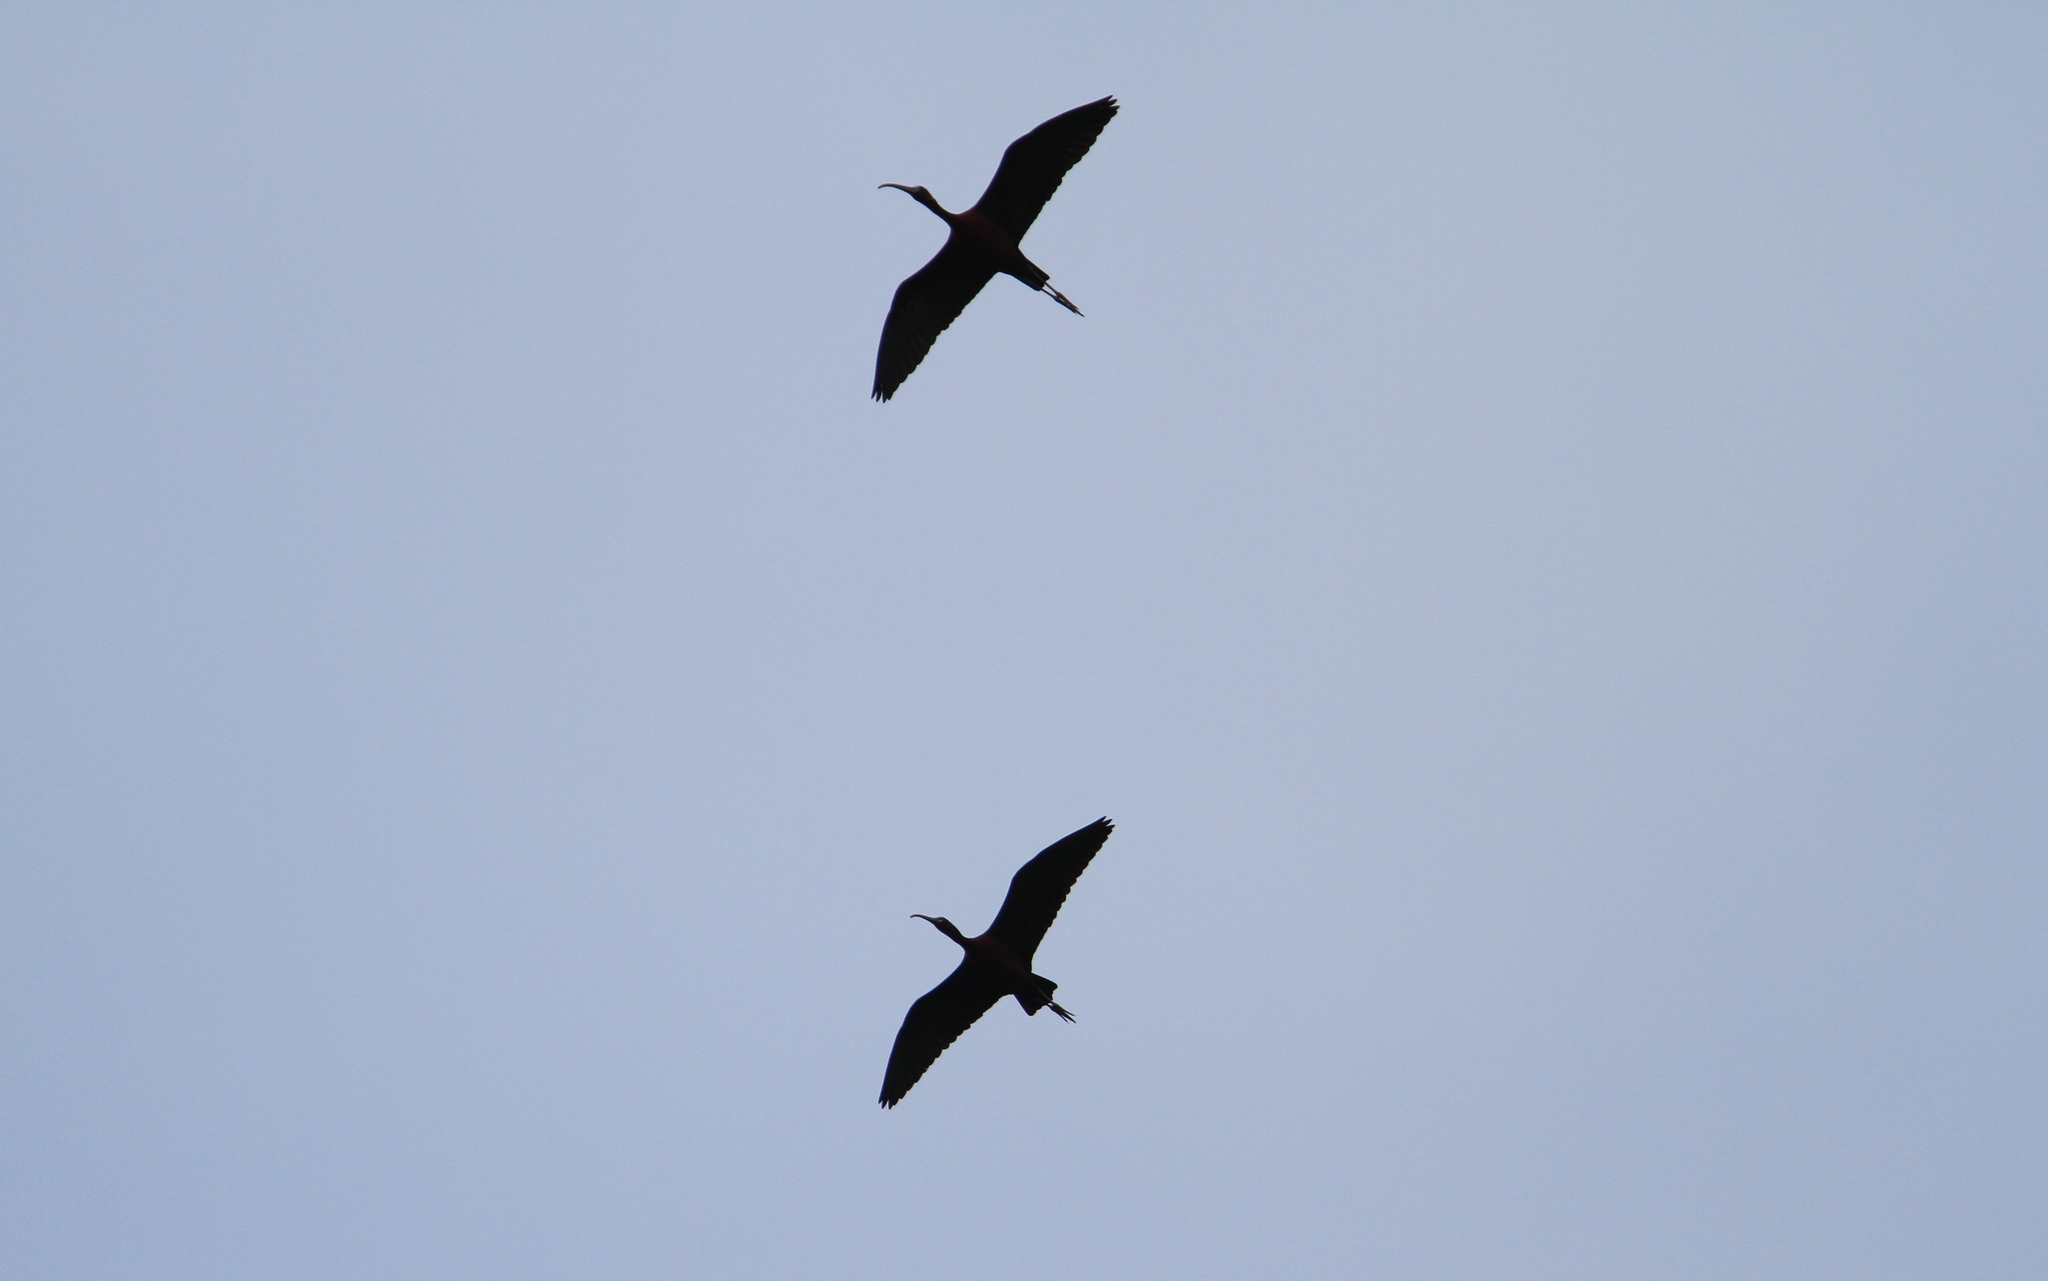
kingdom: Animalia
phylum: Chordata
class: Aves
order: Pelecaniformes
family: Threskiornithidae
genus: Plegadis
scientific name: Plegadis falcinellus
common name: Glossy ibis
